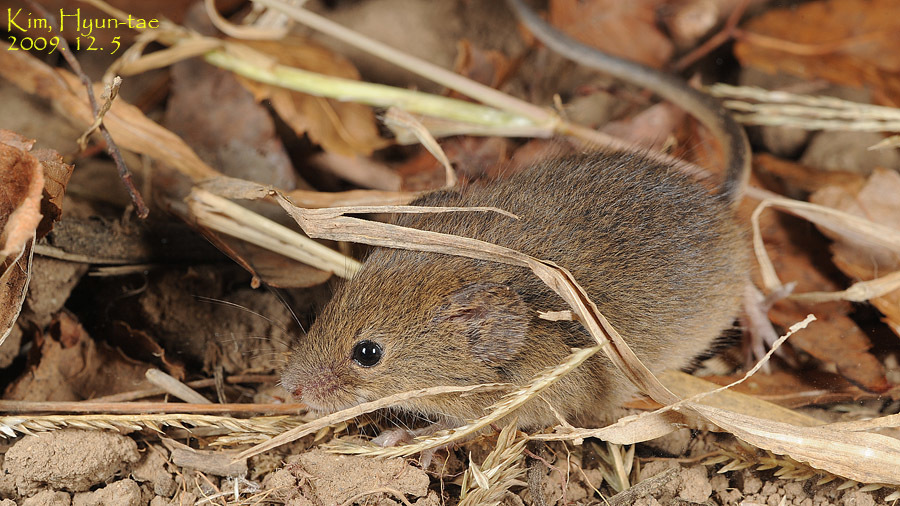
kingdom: Animalia
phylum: Chordata
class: Mammalia
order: Rodentia
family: Muridae
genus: Micromys
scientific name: Micromys minutus
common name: Harvest mouse
